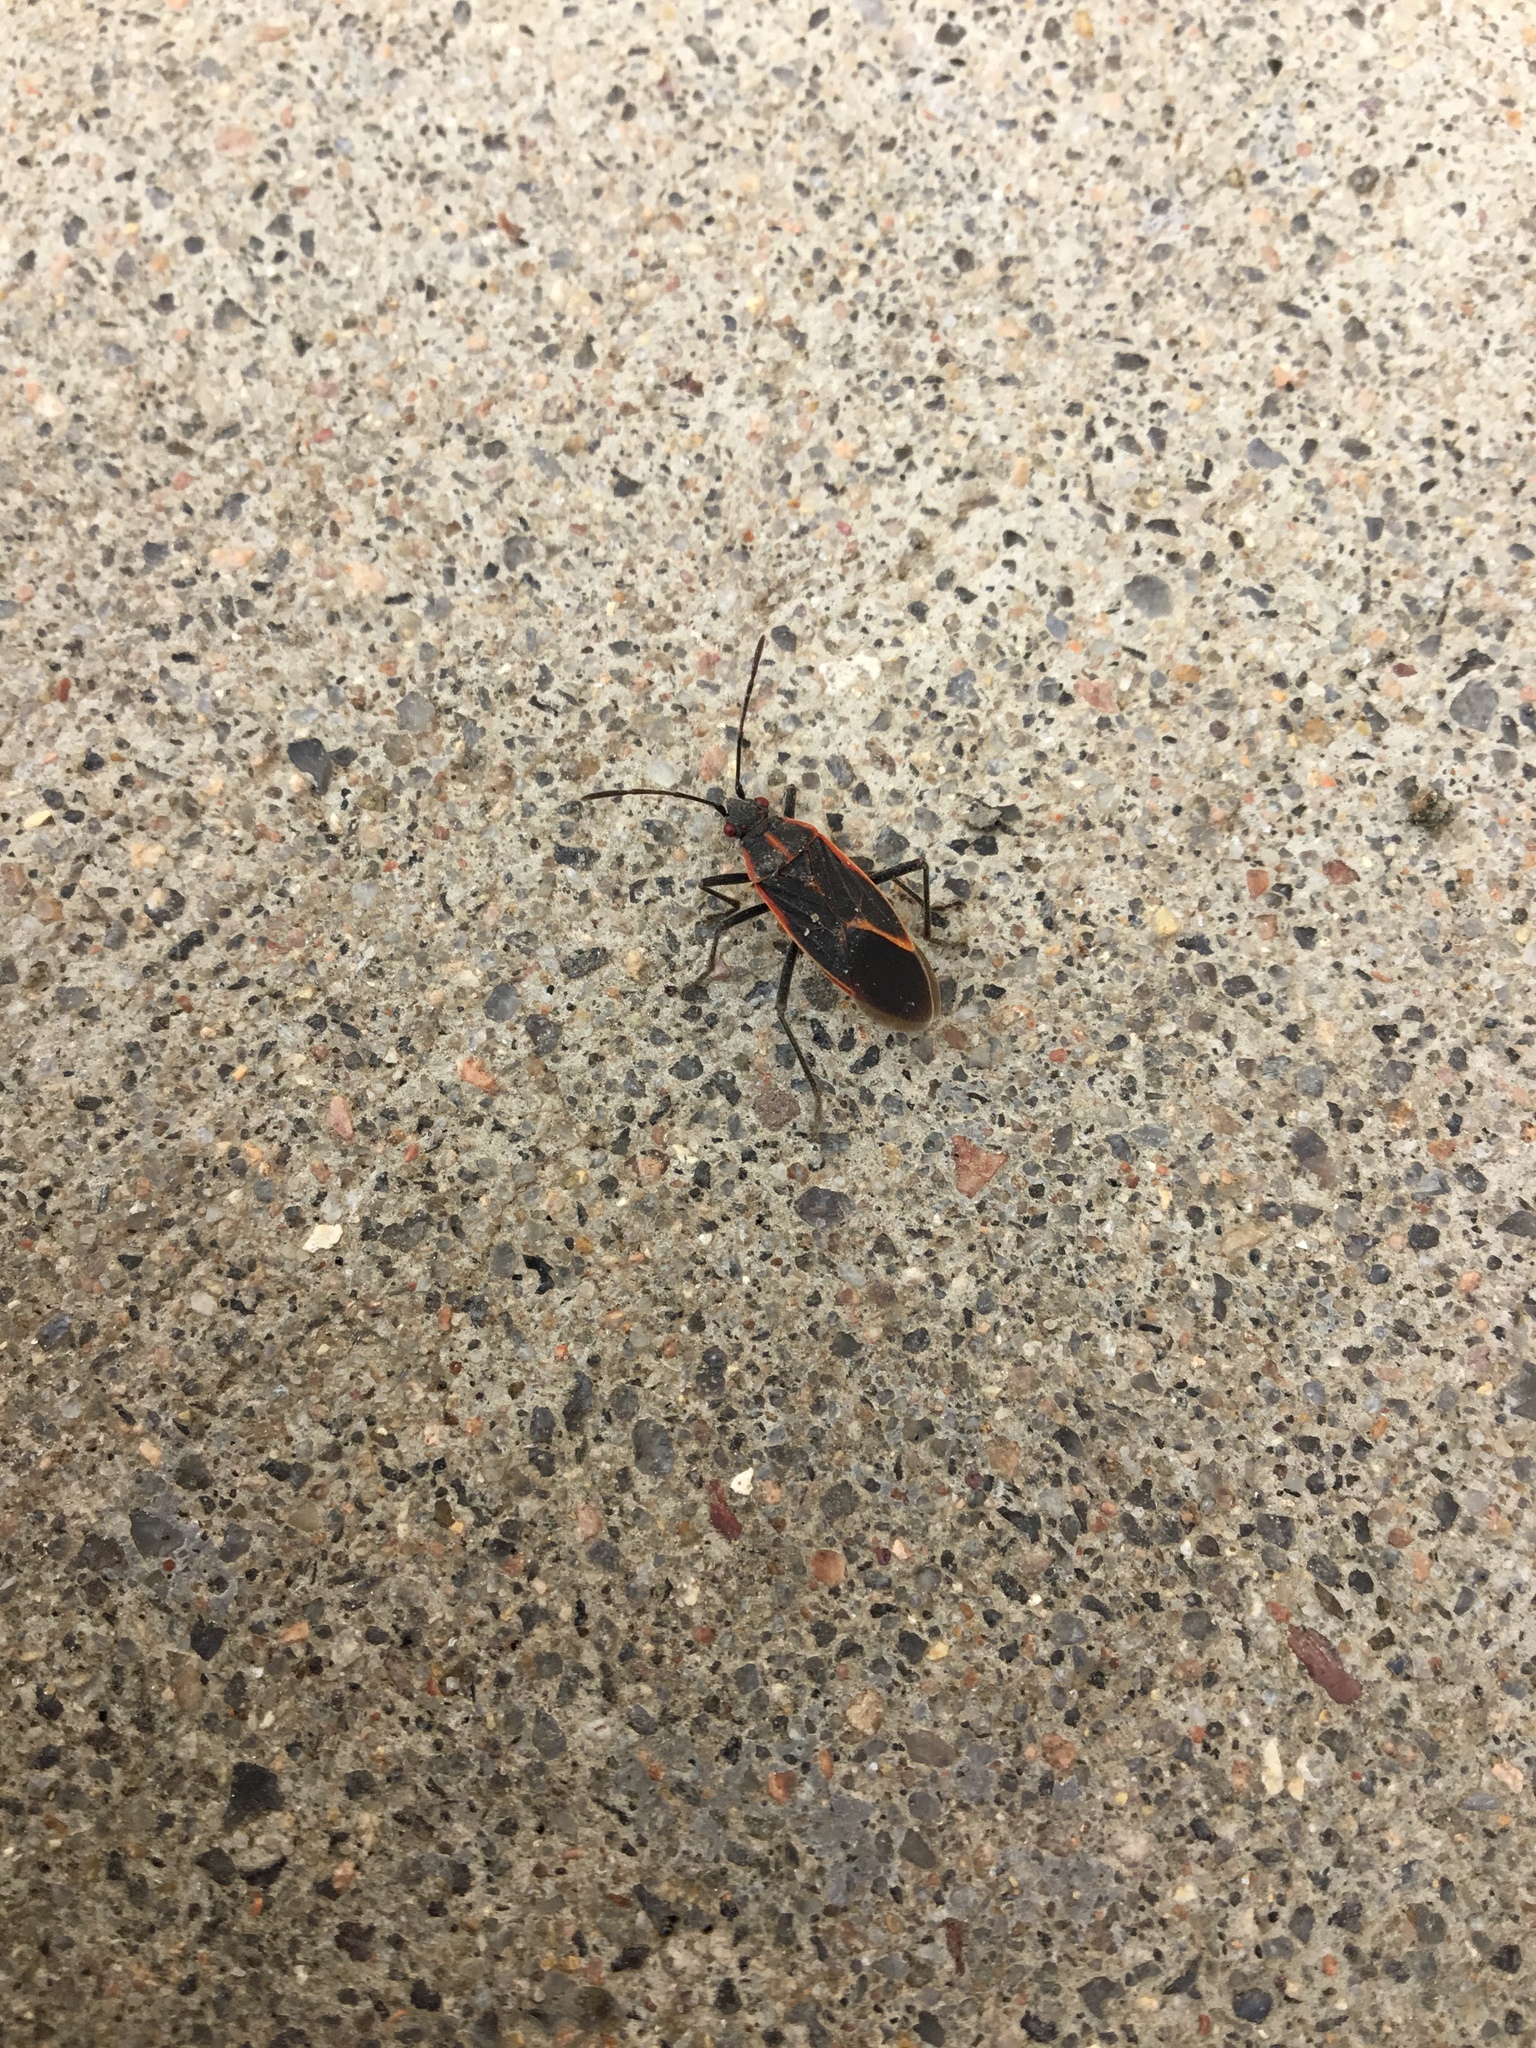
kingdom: Animalia
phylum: Arthropoda
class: Insecta
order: Hemiptera
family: Rhopalidae
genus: Boisea
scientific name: Boisea trivittata
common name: Boxelder bug
